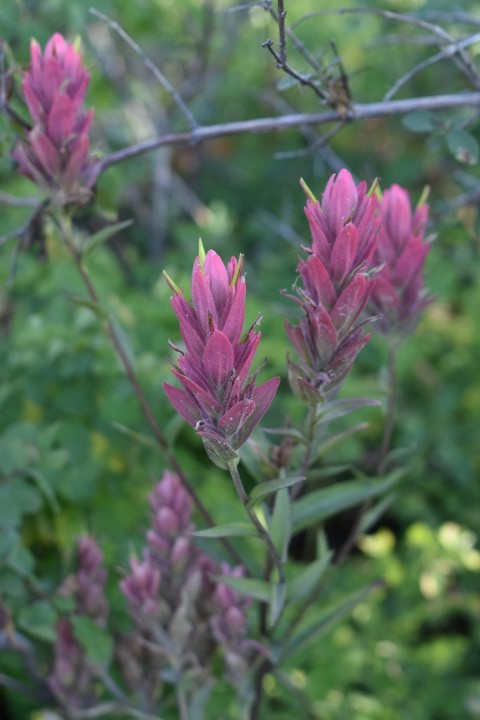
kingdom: Plantae
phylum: Tracheophyta
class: Magnoliopsida
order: Lamiales
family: Orobanchaceae
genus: Castilleja
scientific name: Castilleja rhexifolia
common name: Rocky mountain paintbrush
